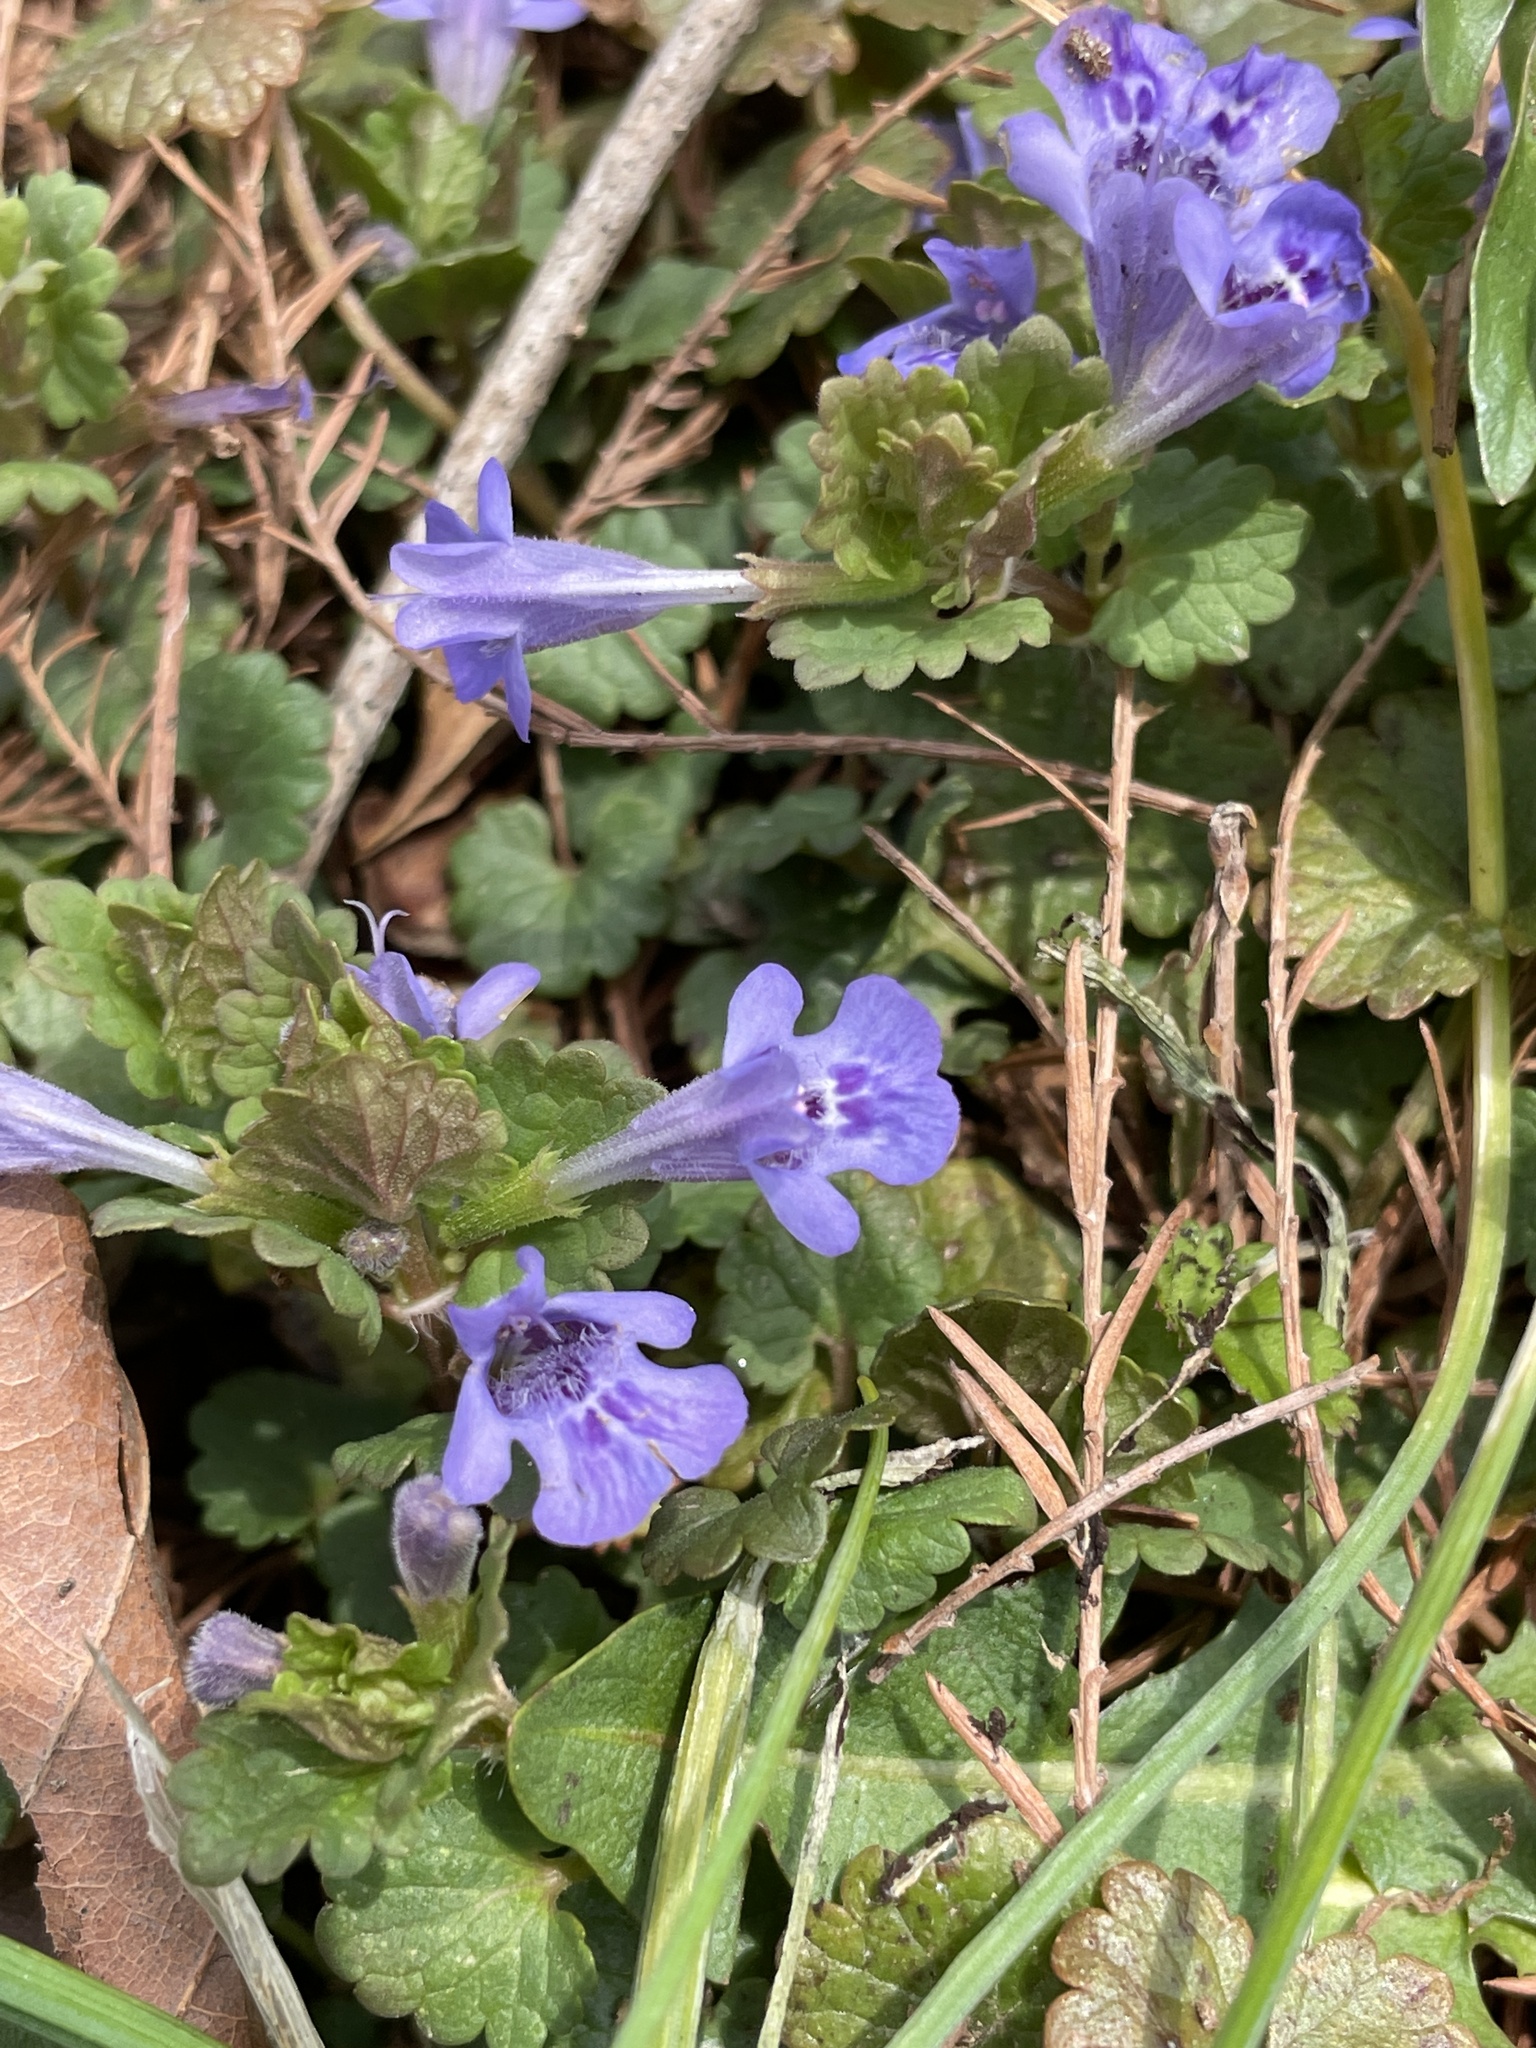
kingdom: Plantae
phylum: Tracheophyta
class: Magnoliopsida
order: Lamiales
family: Lamiaceae
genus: Glechoma
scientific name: Glechoma hederacea
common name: Ground ivy
